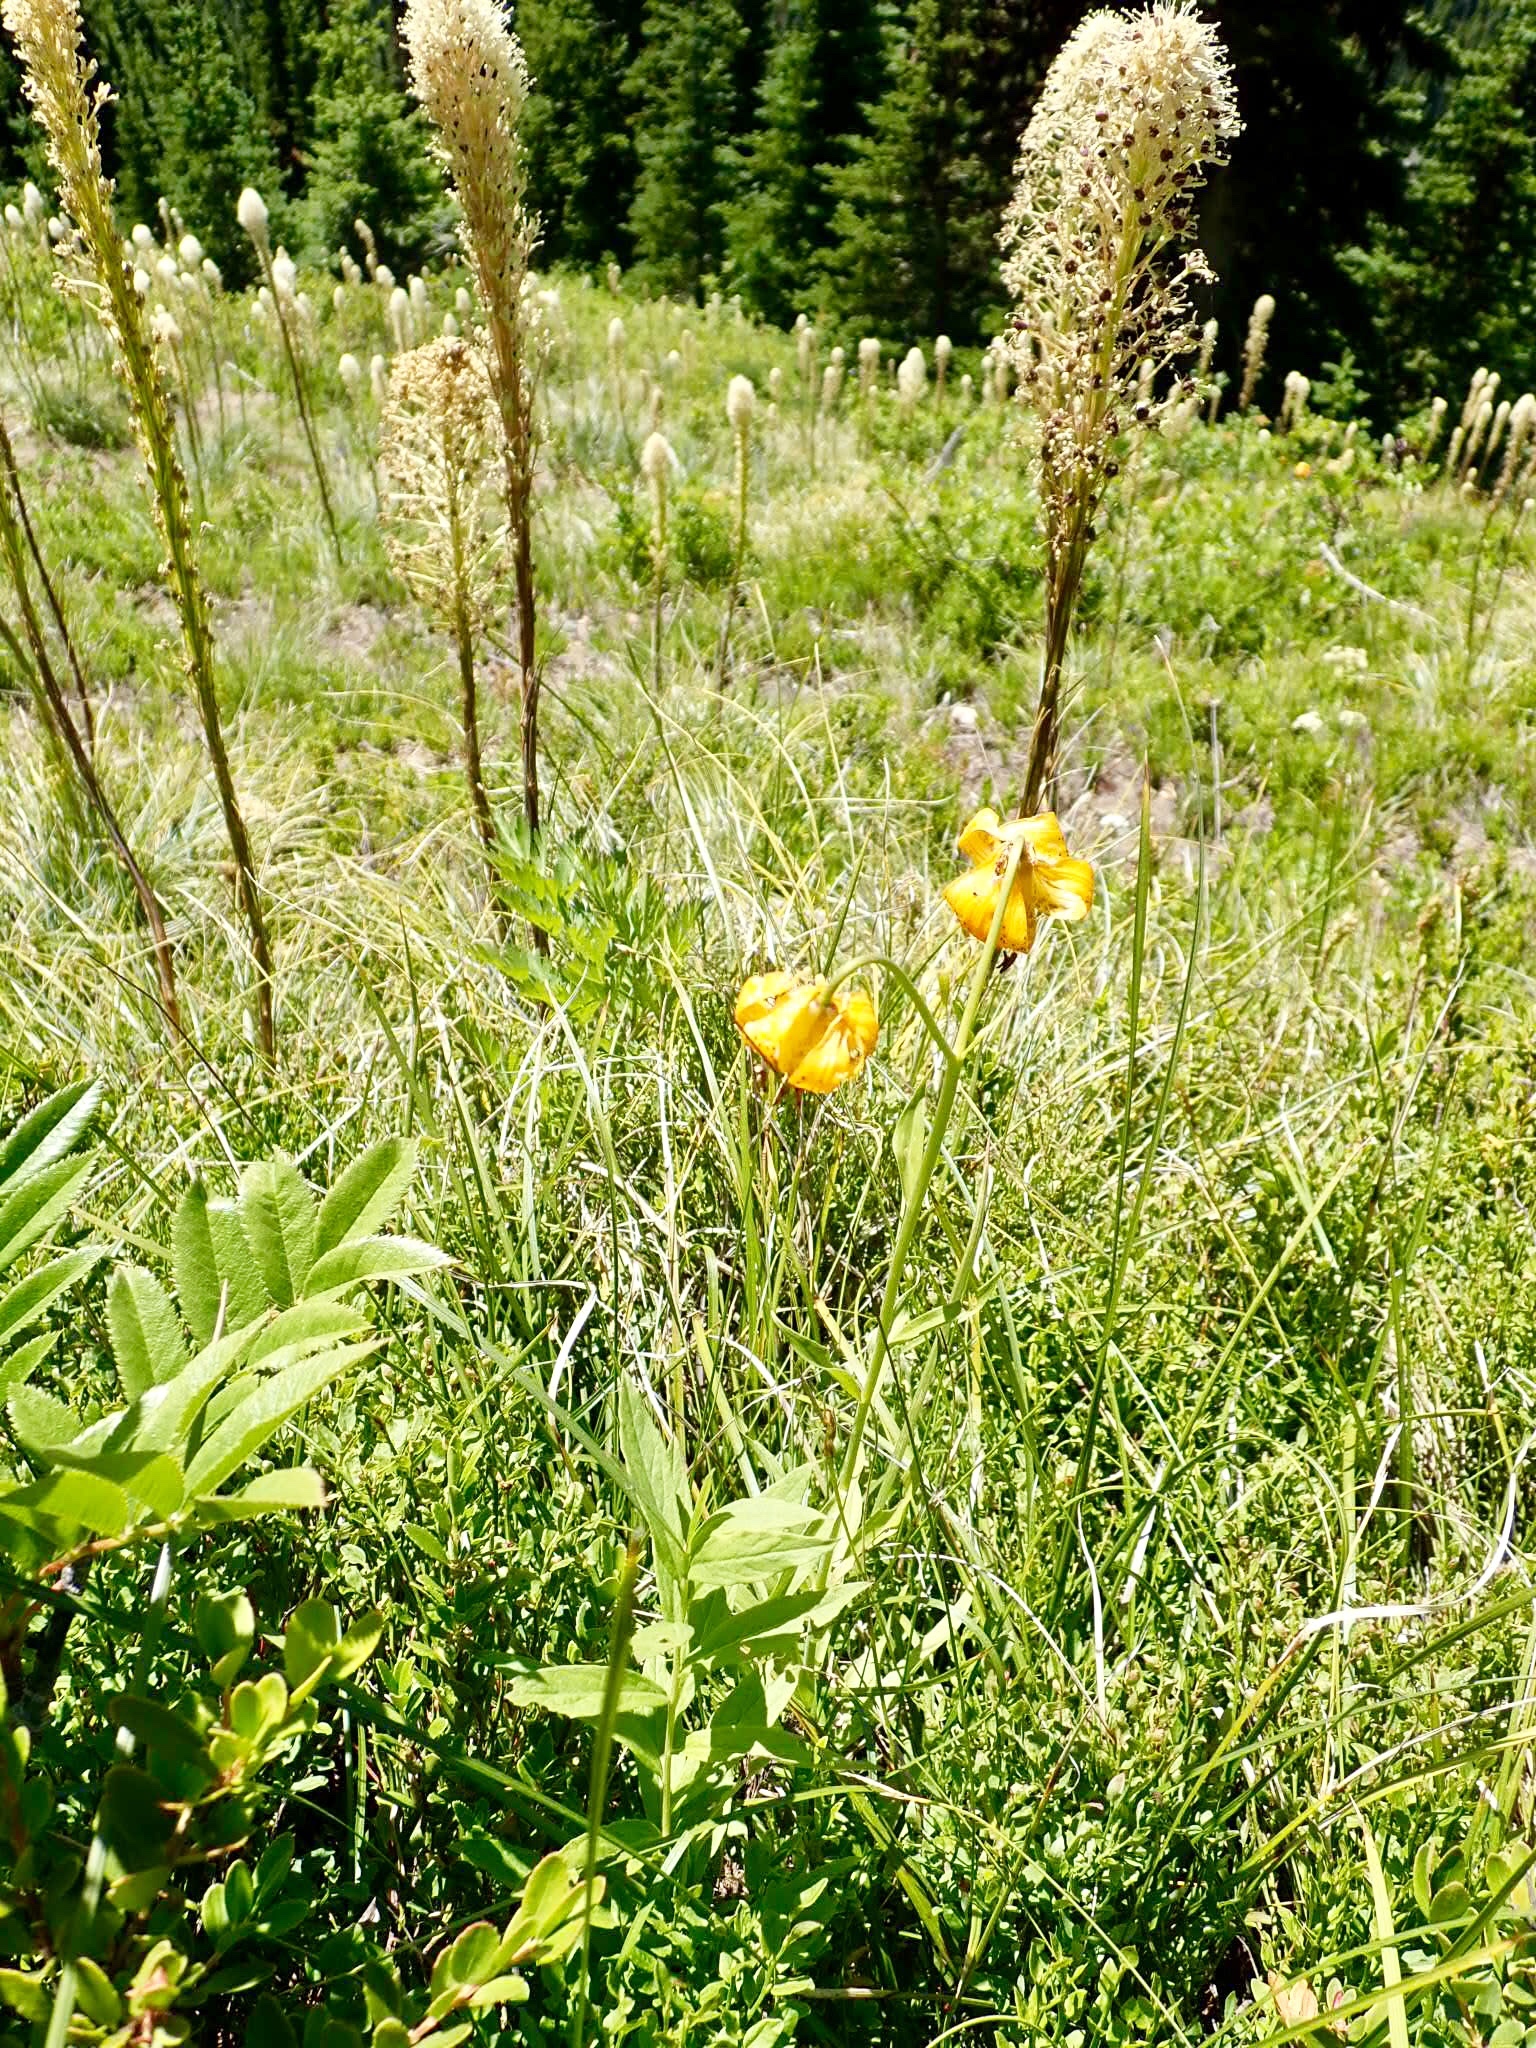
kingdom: Plantae
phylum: Tracheophyta
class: Liliopsida
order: Liliales
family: Melanthiaceae
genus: Xerophyllum
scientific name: Xerophyllum tenax
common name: Bear-grass
